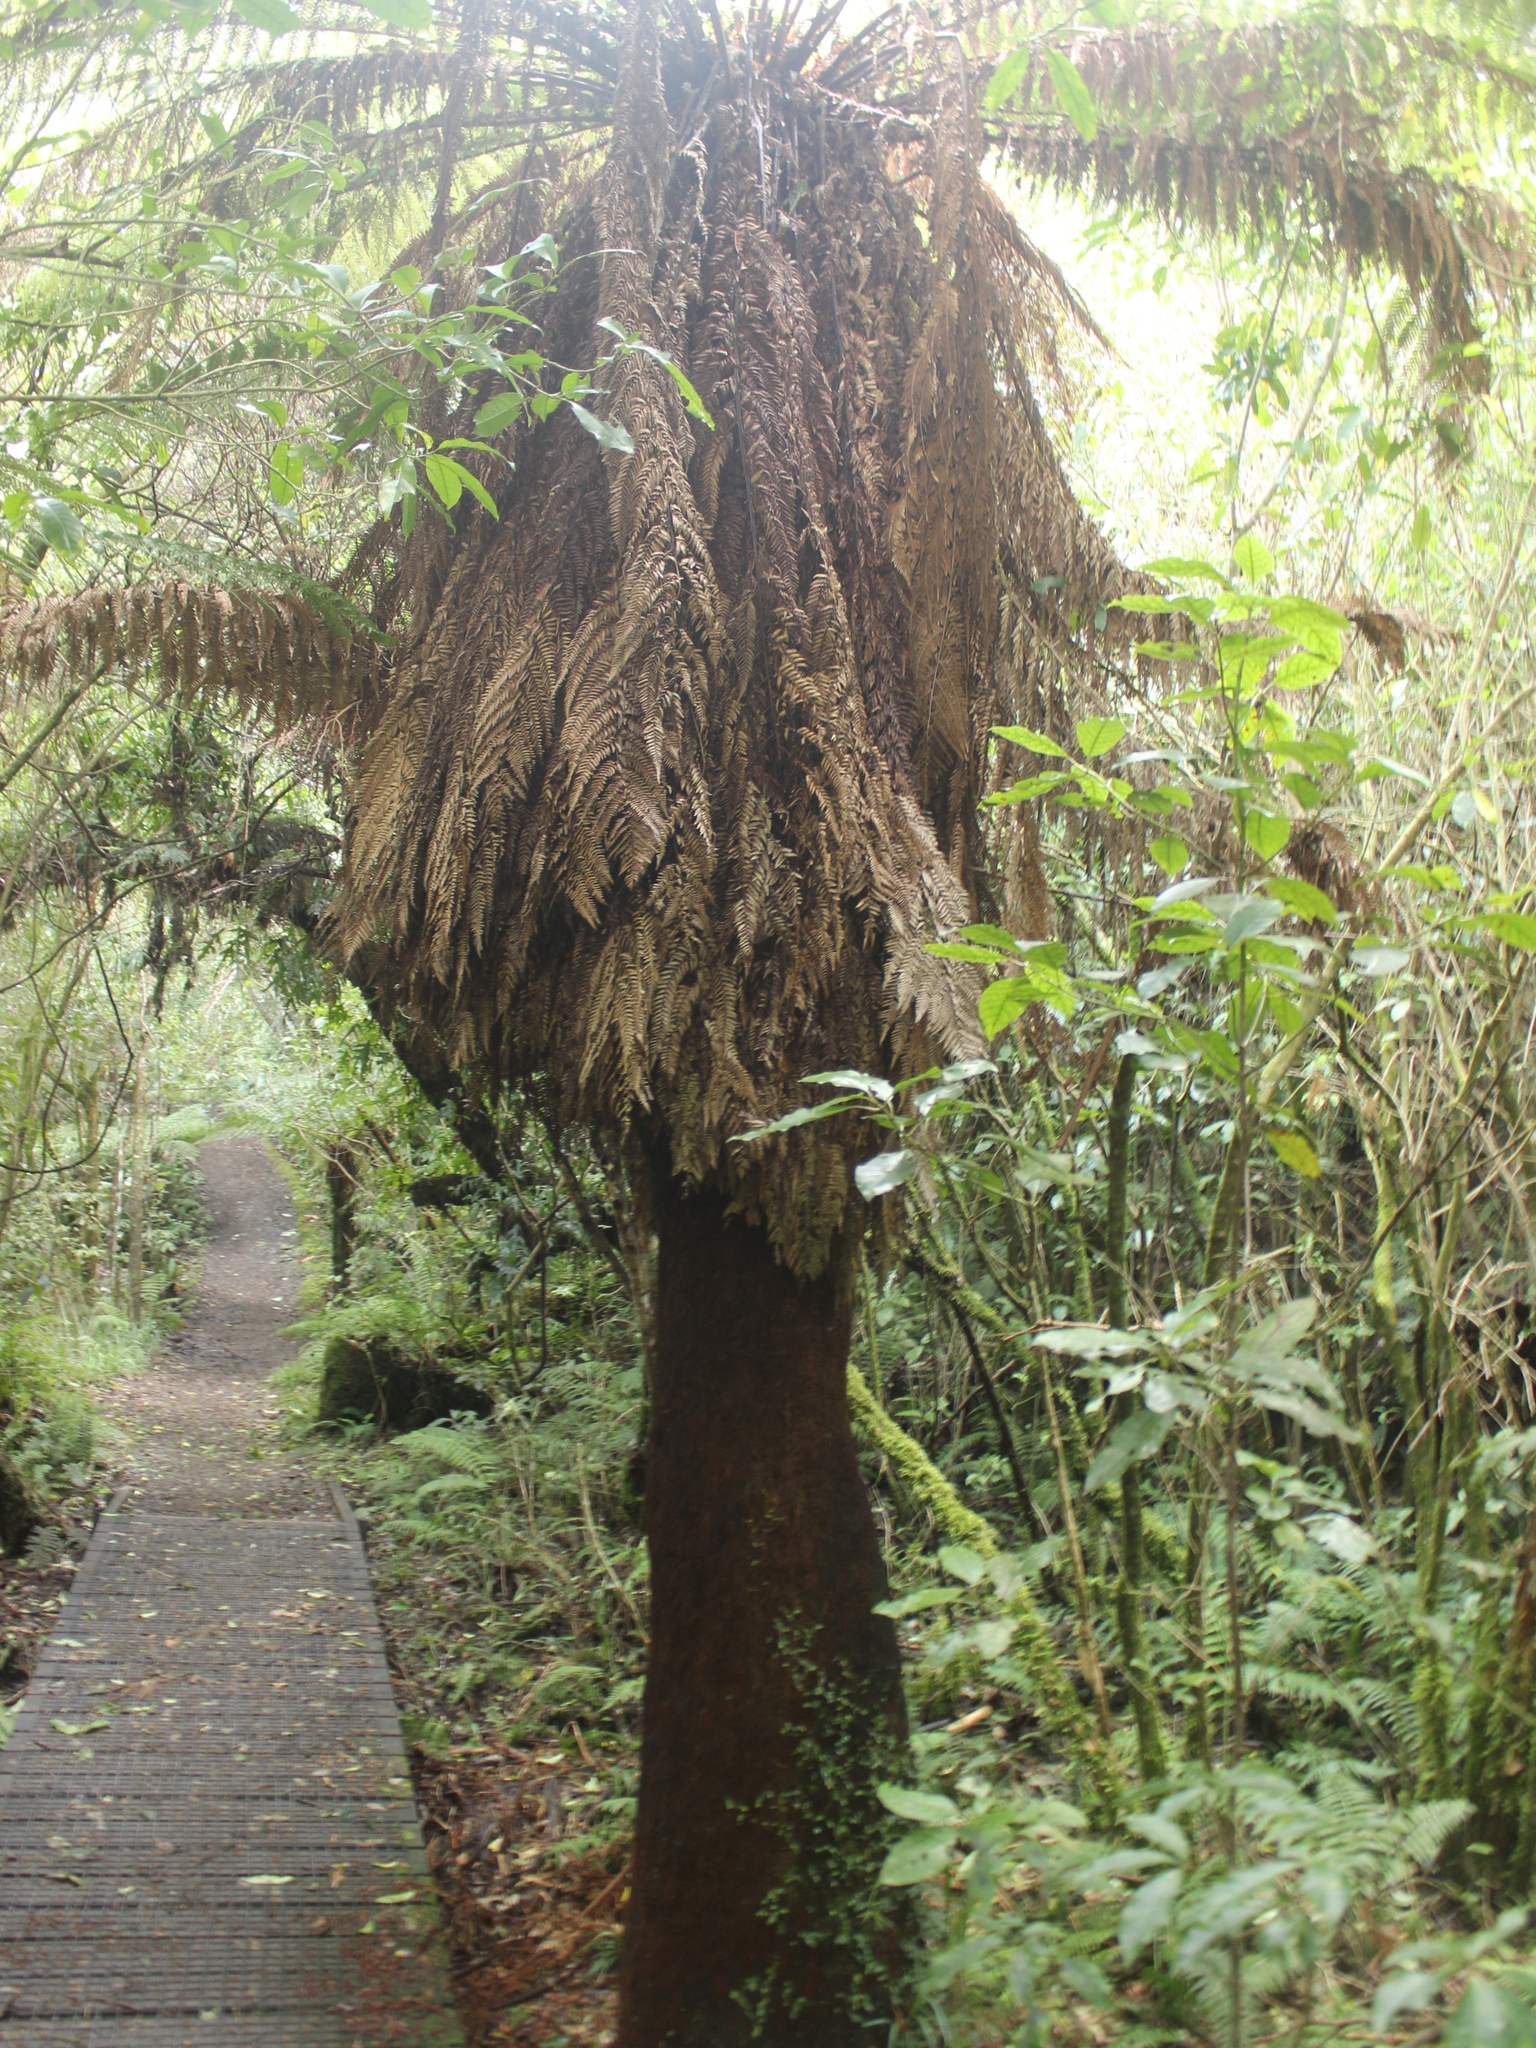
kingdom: Plantae
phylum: Tracheophyta
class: Polypodiopsida
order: Cyatheales
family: Dicksoniaceae
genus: Dicksonia
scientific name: Dicksonia fibrosa
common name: Golden tree fern
